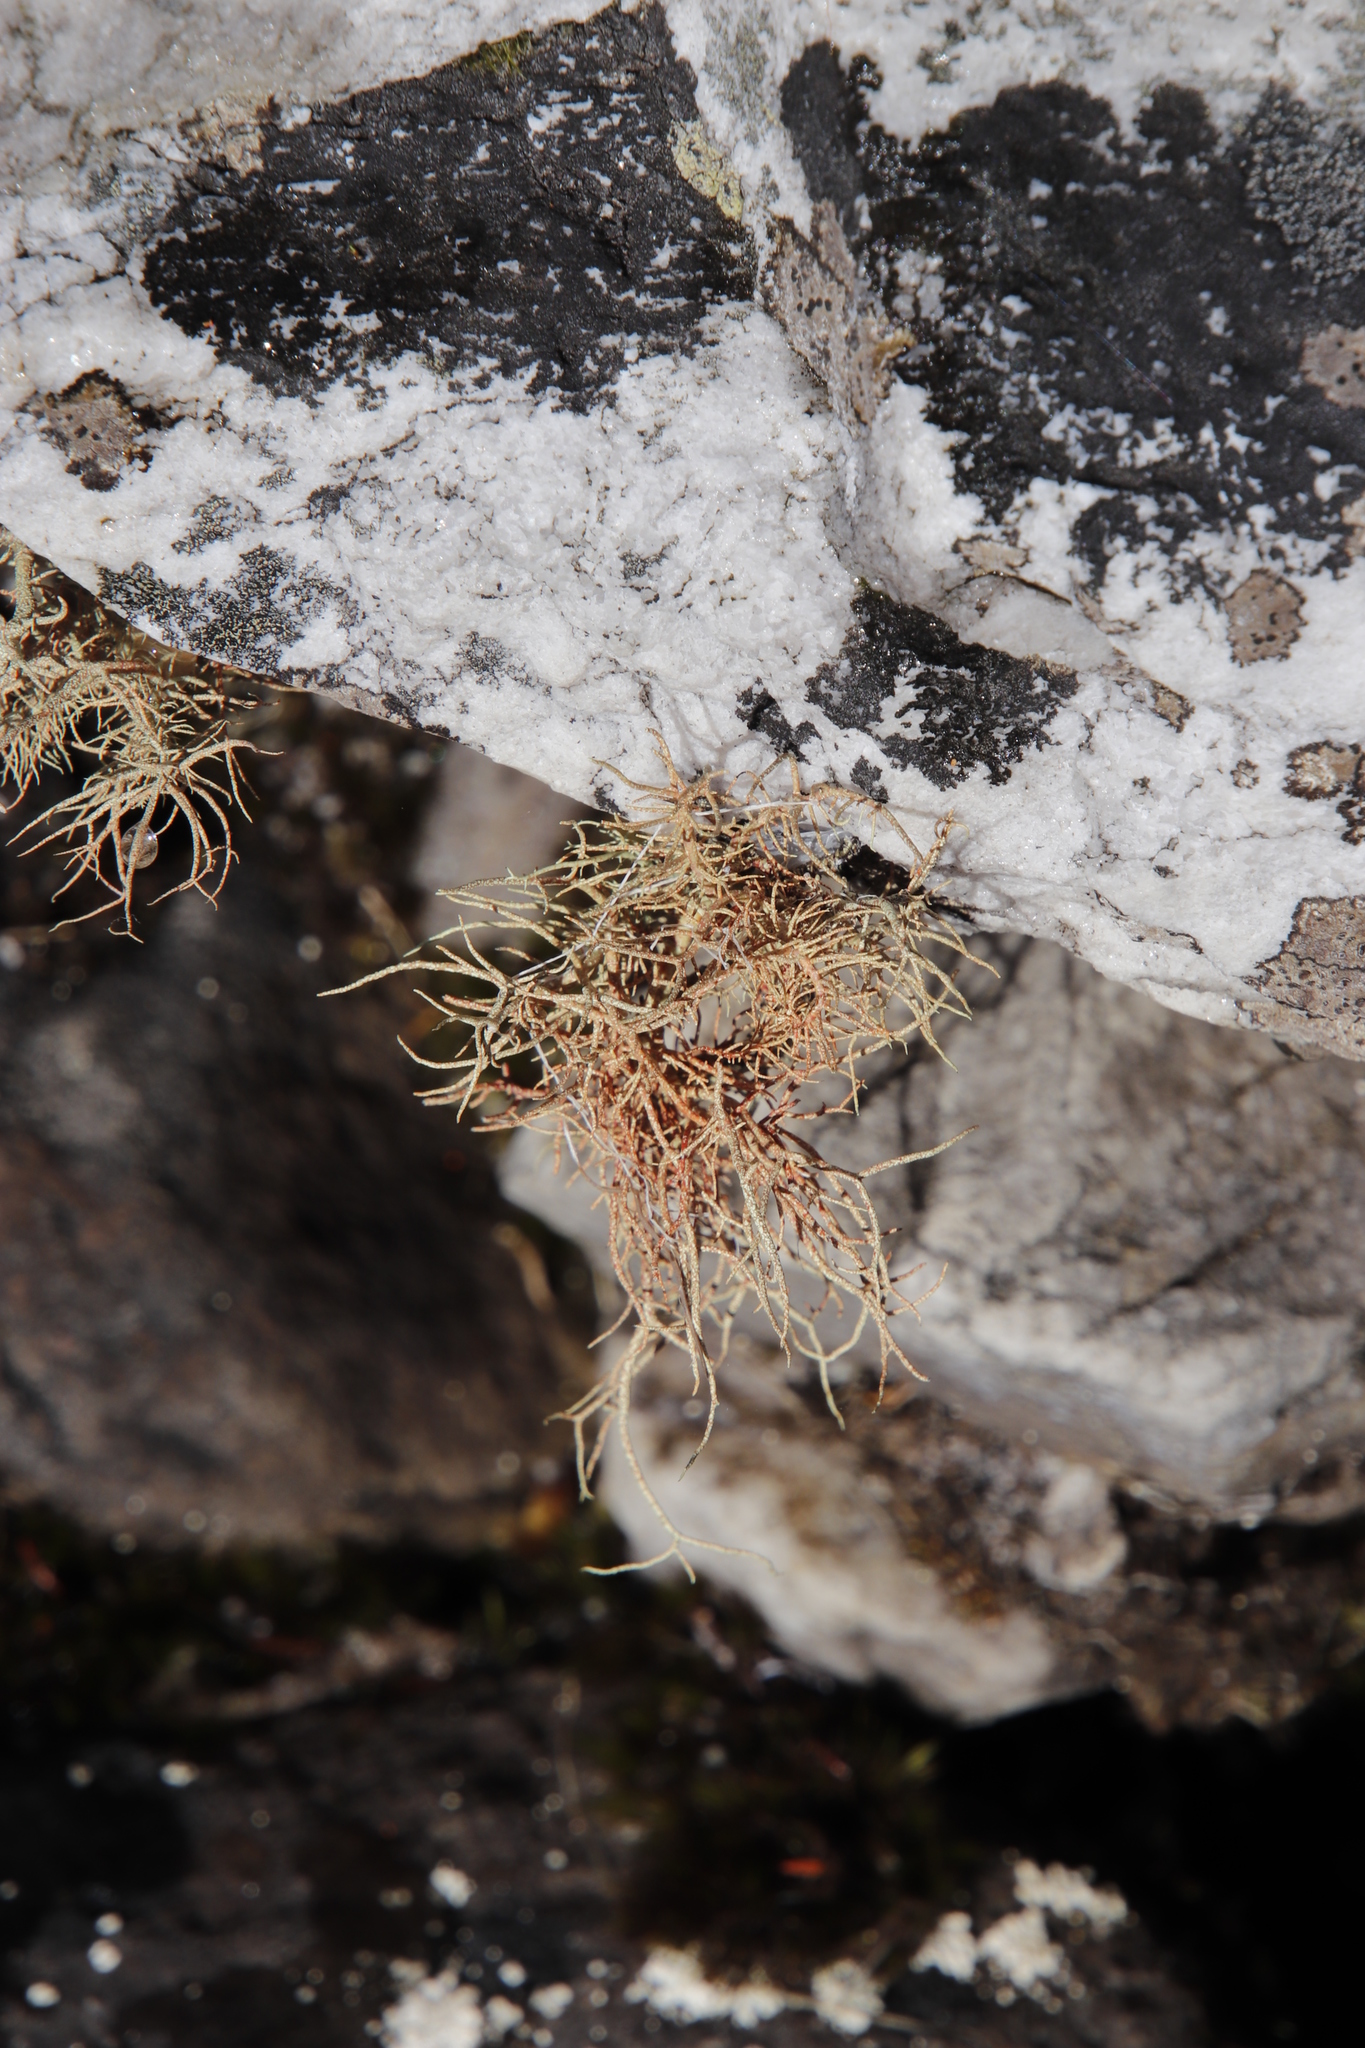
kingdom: Fungi
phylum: Ascomycota
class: Lecanoromycetes
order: Lecanorales
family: Parmeliaceae
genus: Usnea
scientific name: Usnea maculata
